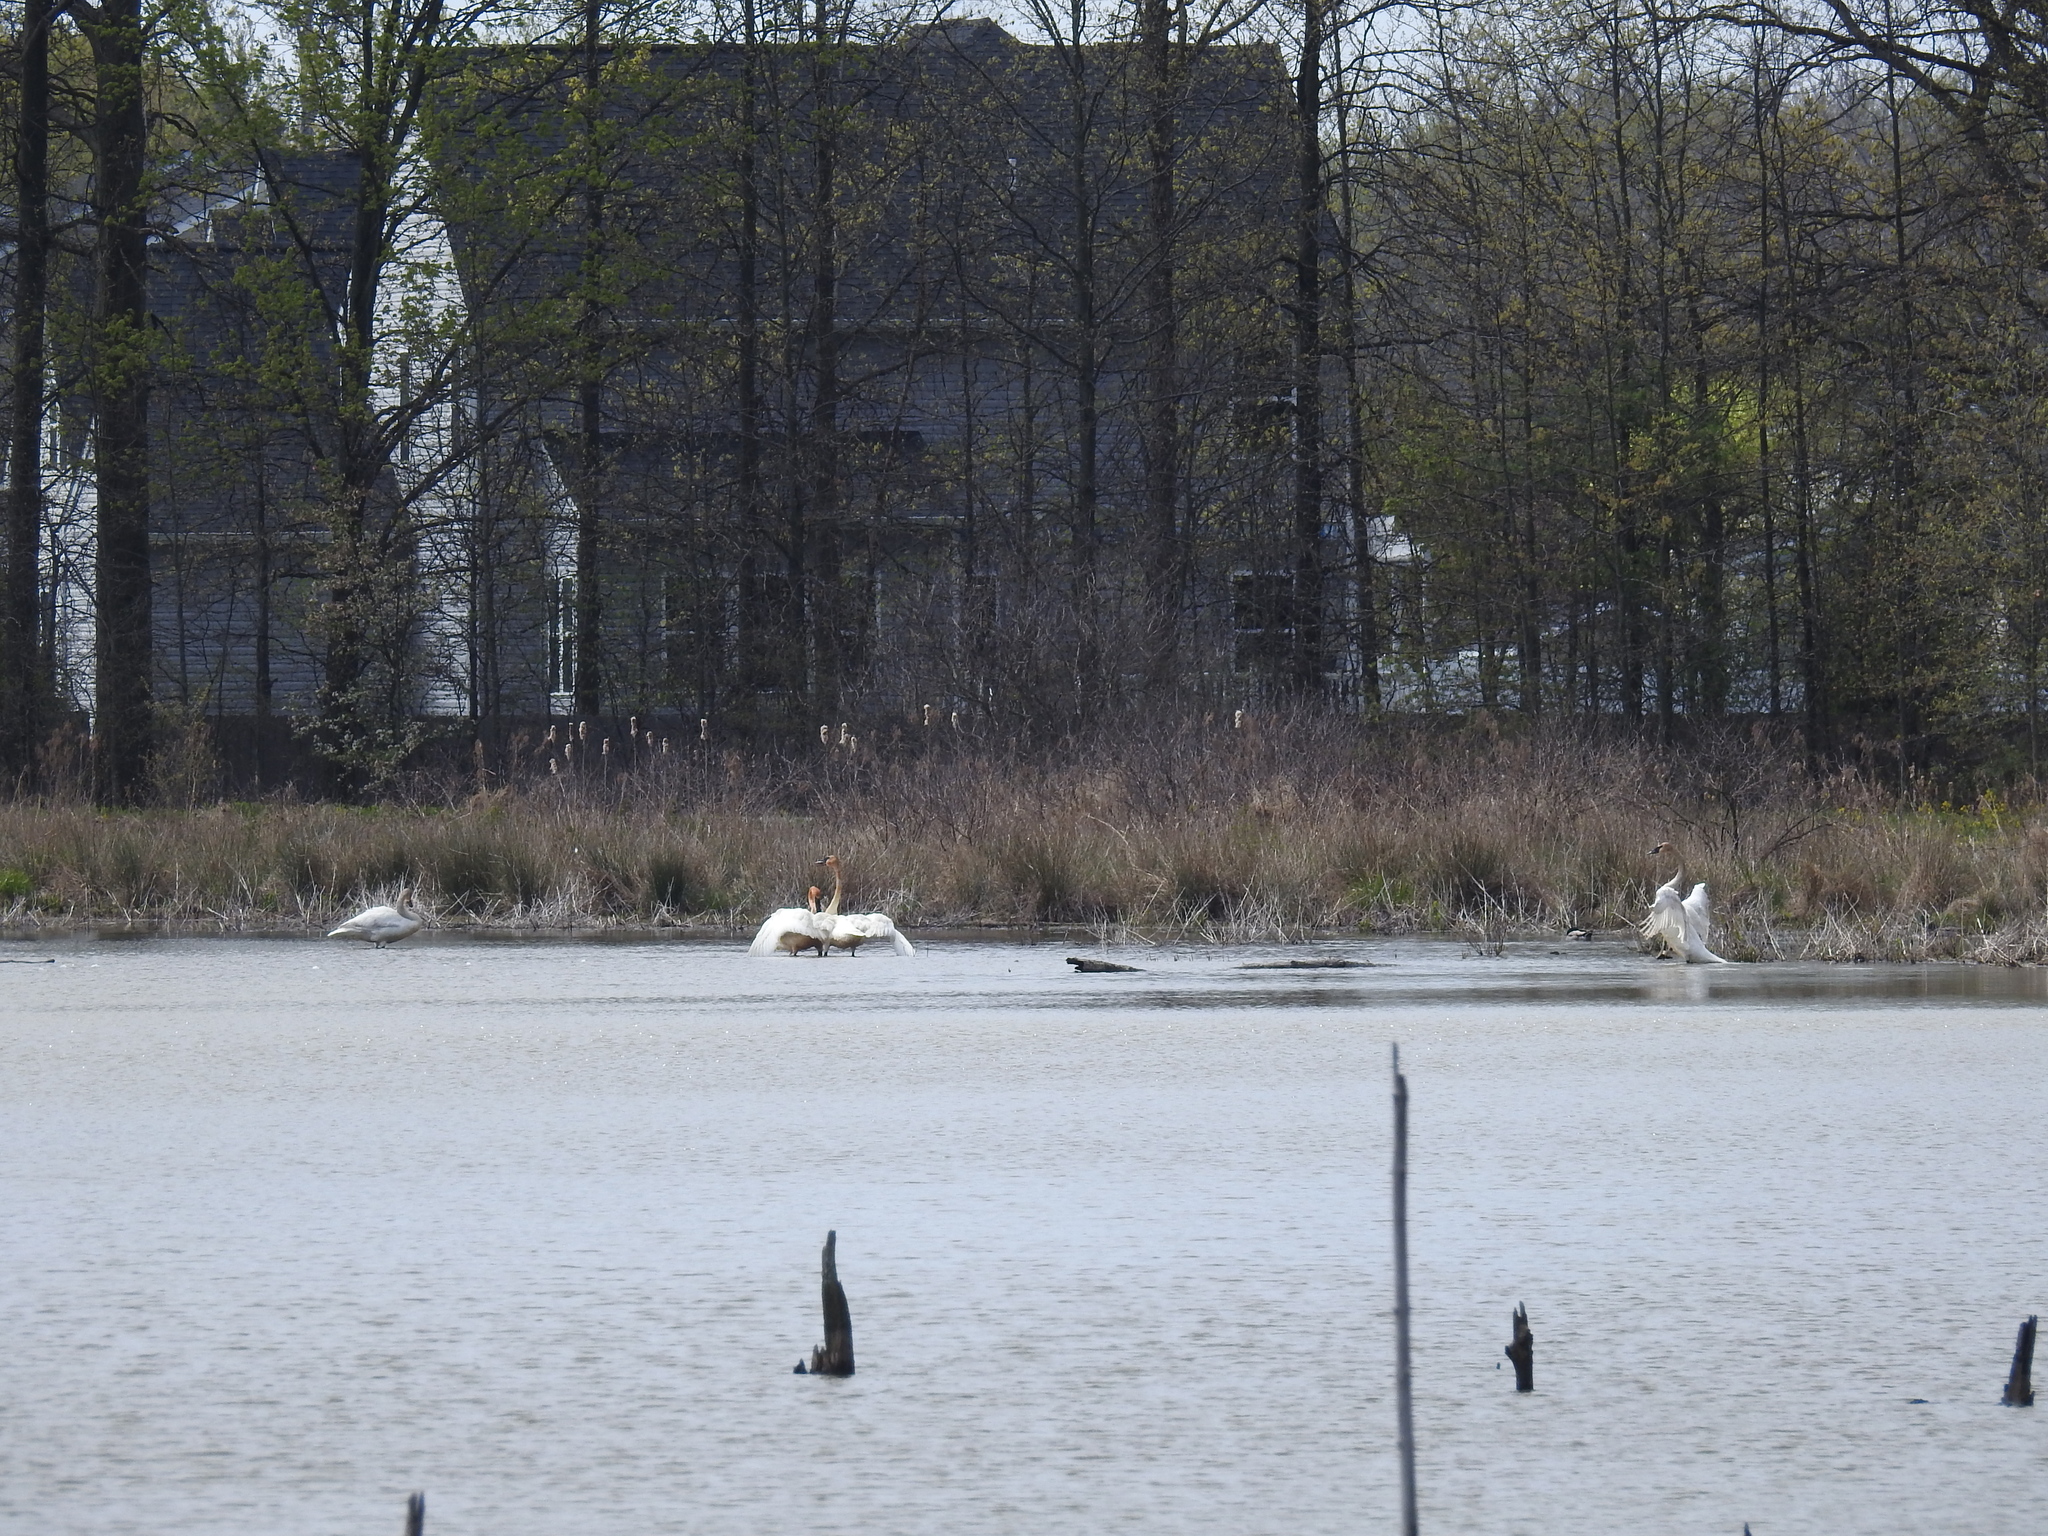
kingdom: Animalia
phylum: Chordata
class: Aves
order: Anseriformes
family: Anatidae
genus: Cygnus
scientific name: Cygnus buccinator
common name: Trumpeter swan
